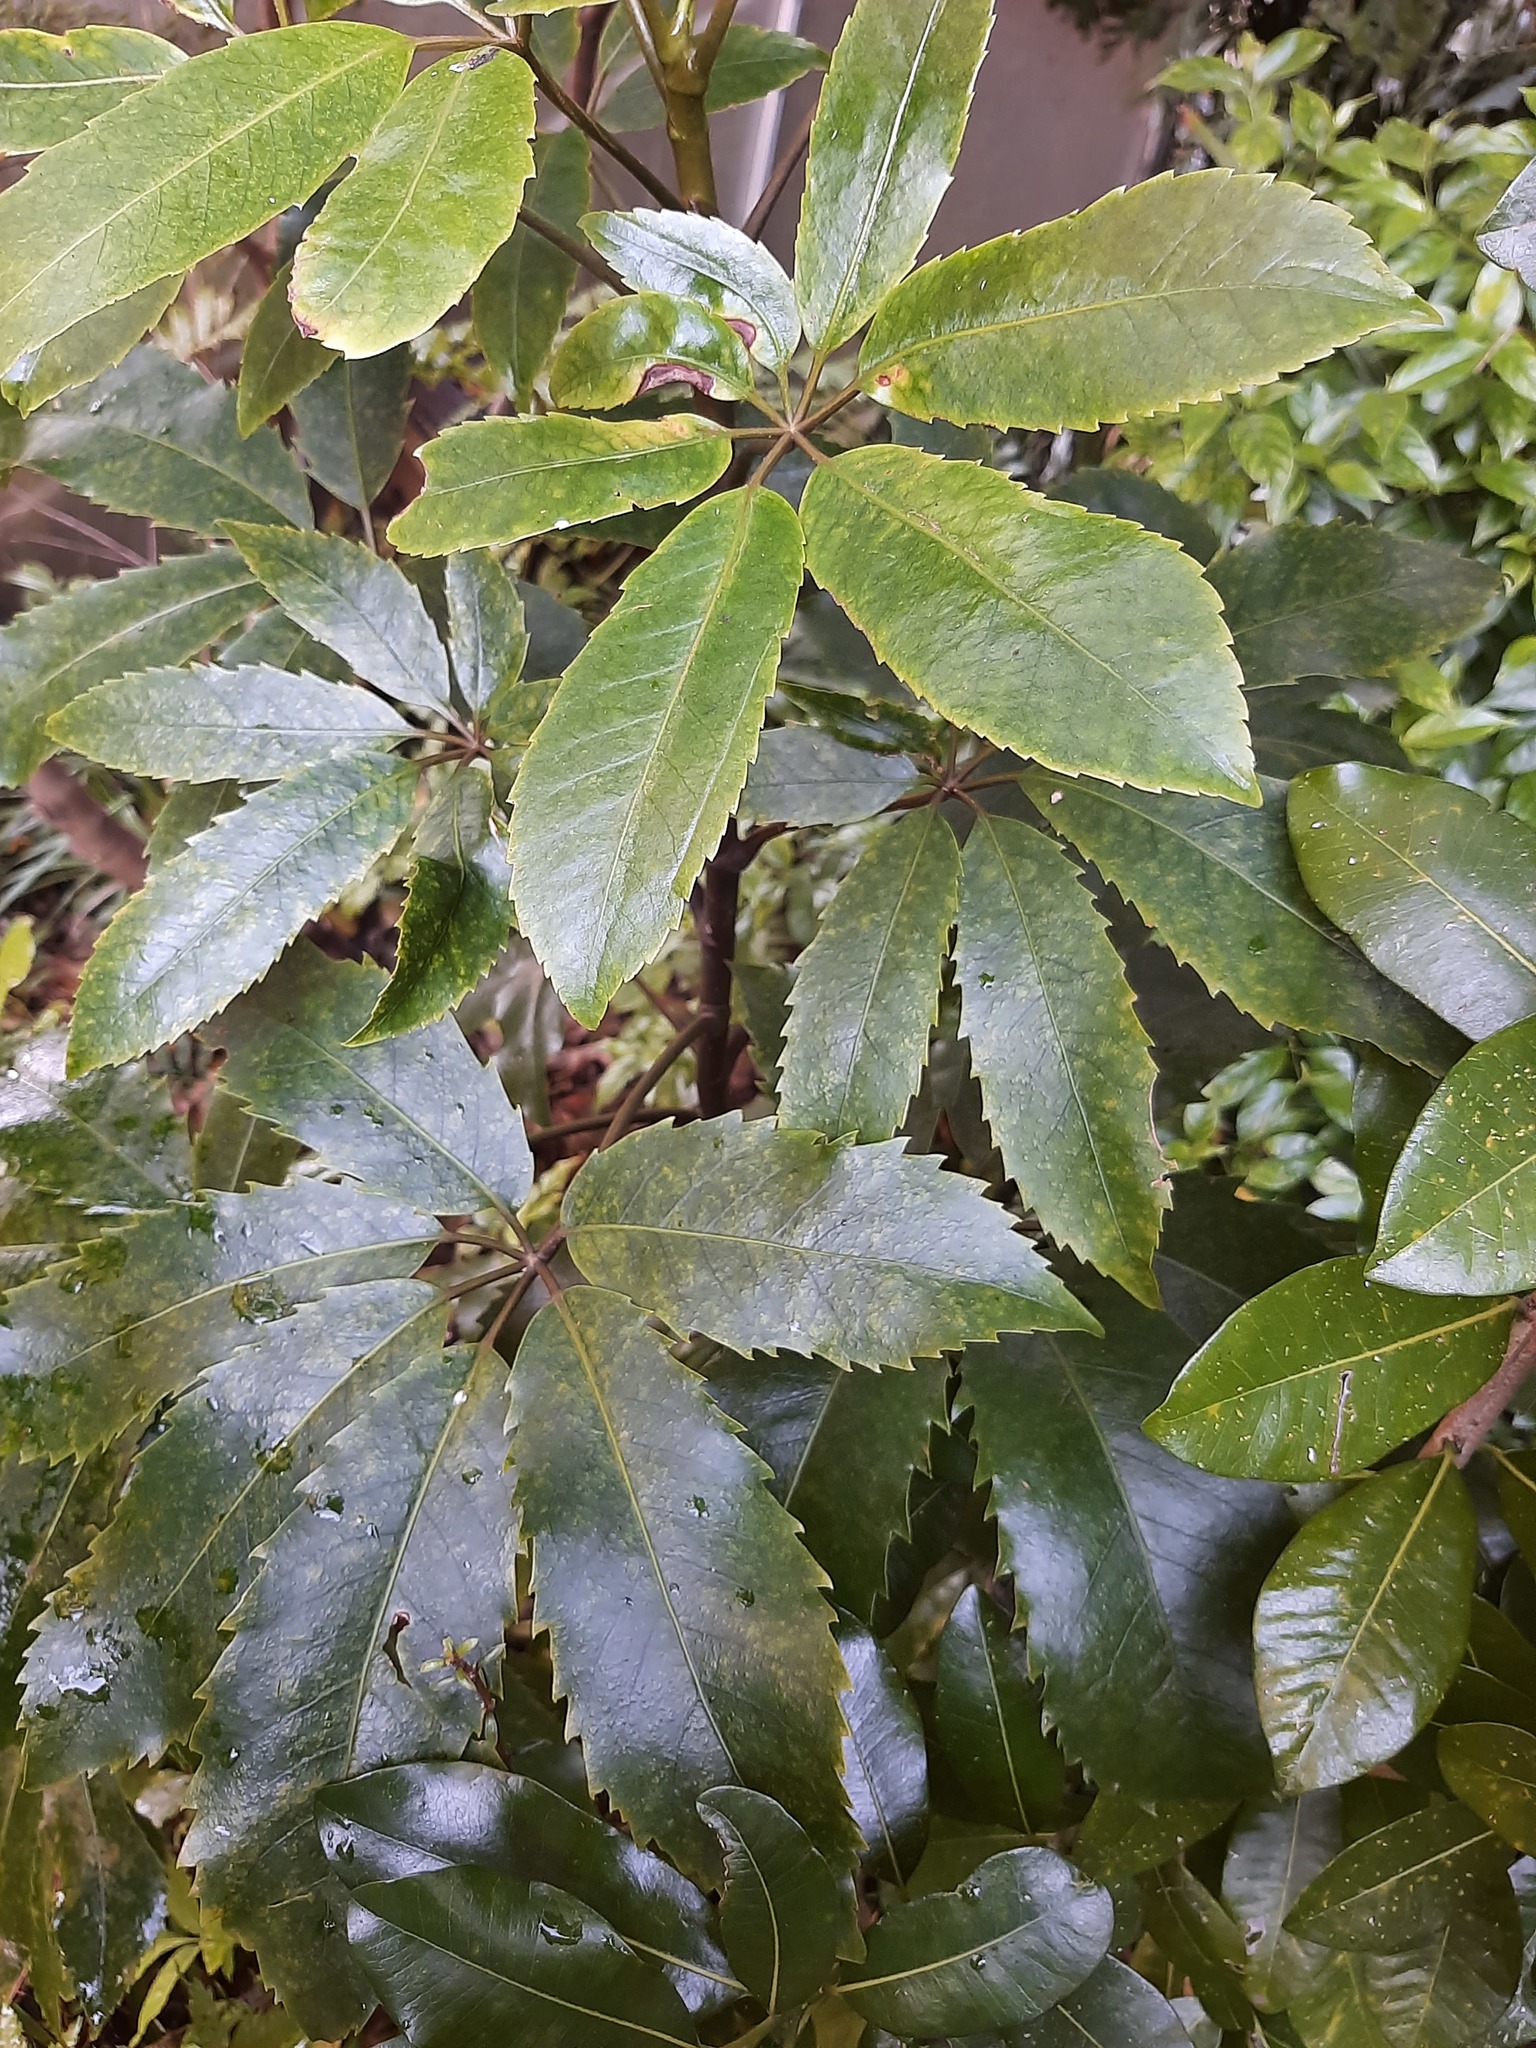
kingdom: Plantae
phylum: Tracheophyta
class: Magnoliopsida
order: Apiales
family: Araliaceae
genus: Neopanax
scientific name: Neopanax arboreus
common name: Five-fingers
